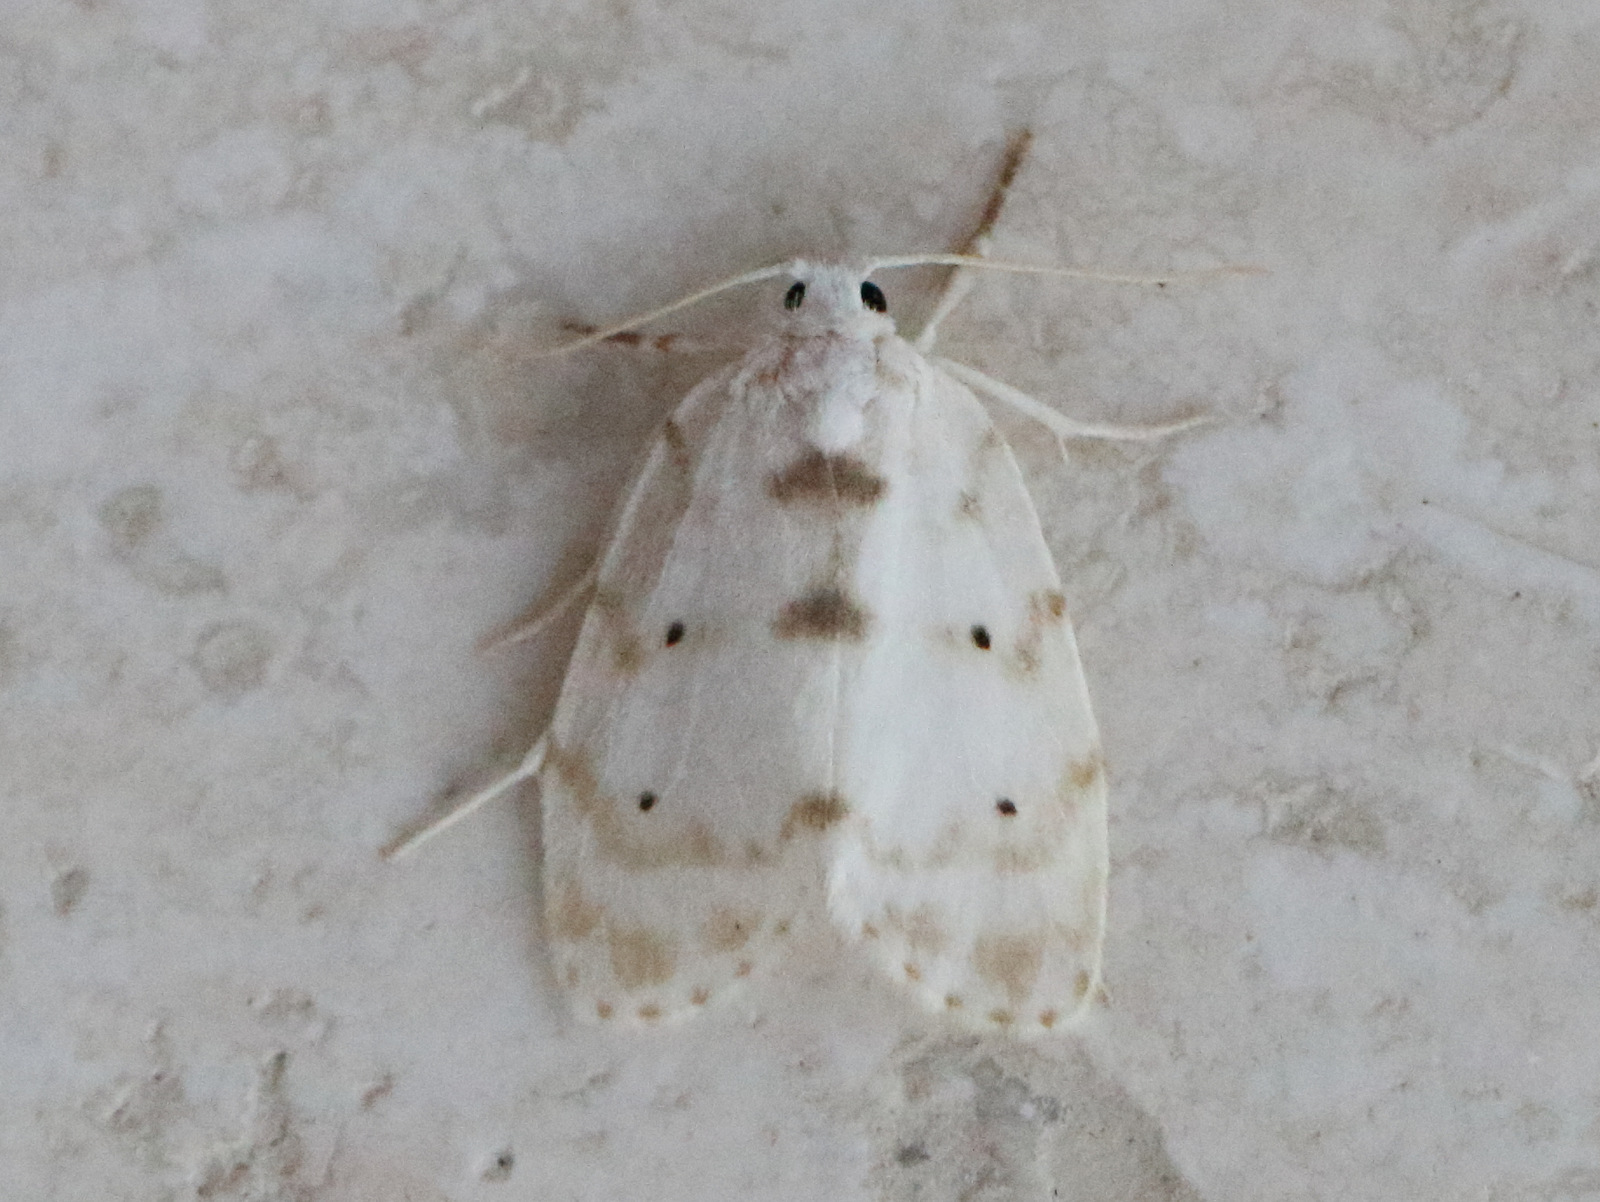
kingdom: Animalia
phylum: Arthropoda
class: Insecta
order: Lepidoptera
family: Erebidae
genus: Schistophleps
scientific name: Schistophleps albida
